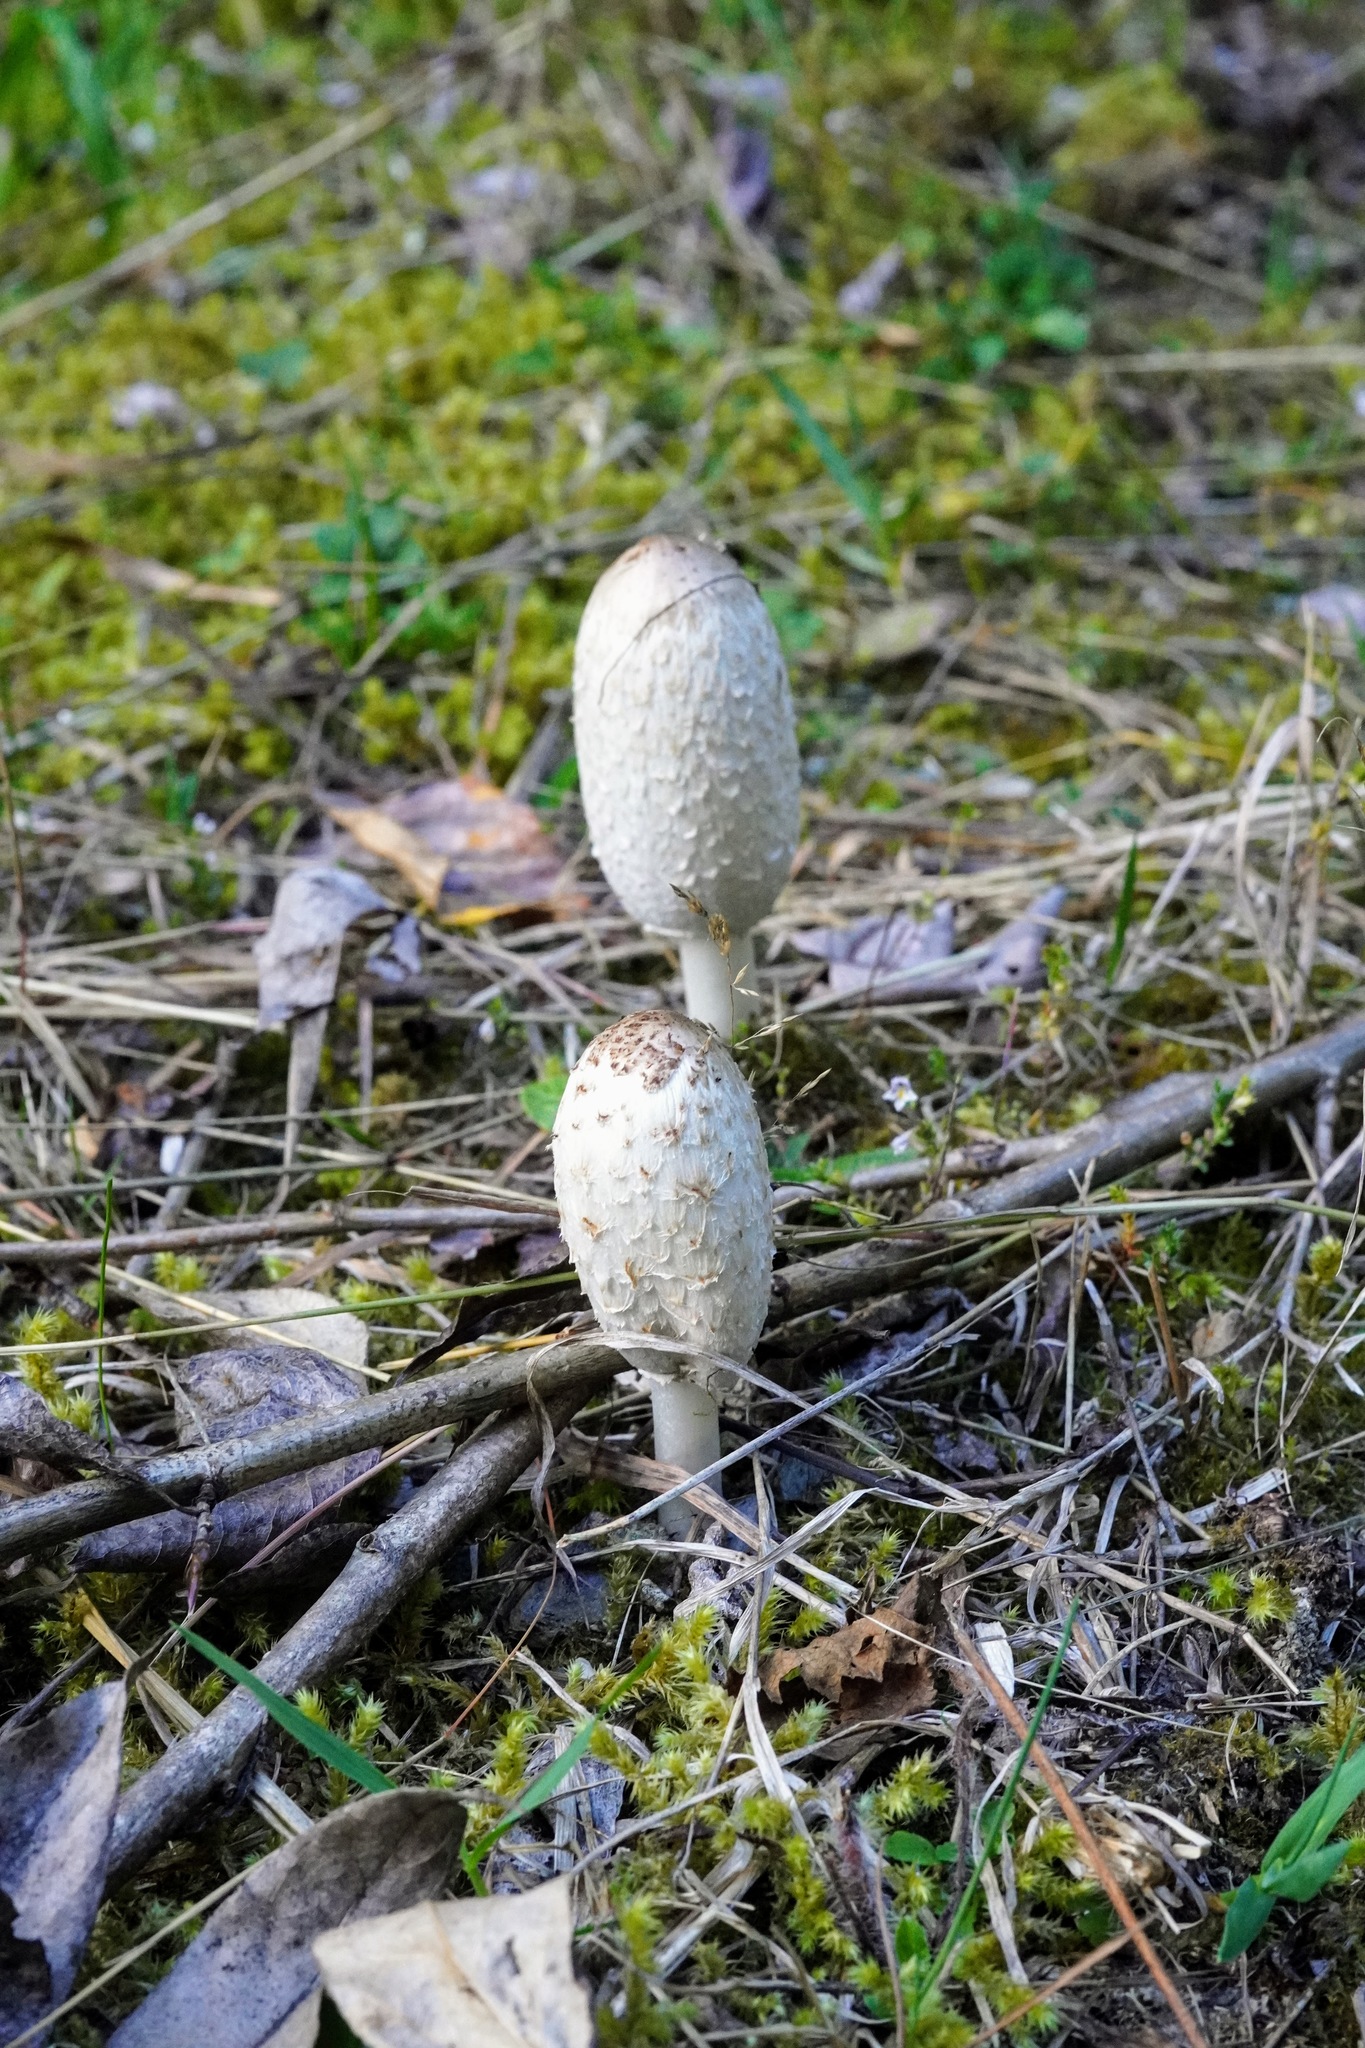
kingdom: Fungi
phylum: Basidiomycota
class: Agaricomycetes
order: Agaricales
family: Agaricaceae
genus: Coprinus
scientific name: Coprinus comatus
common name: Lawyer's wig
